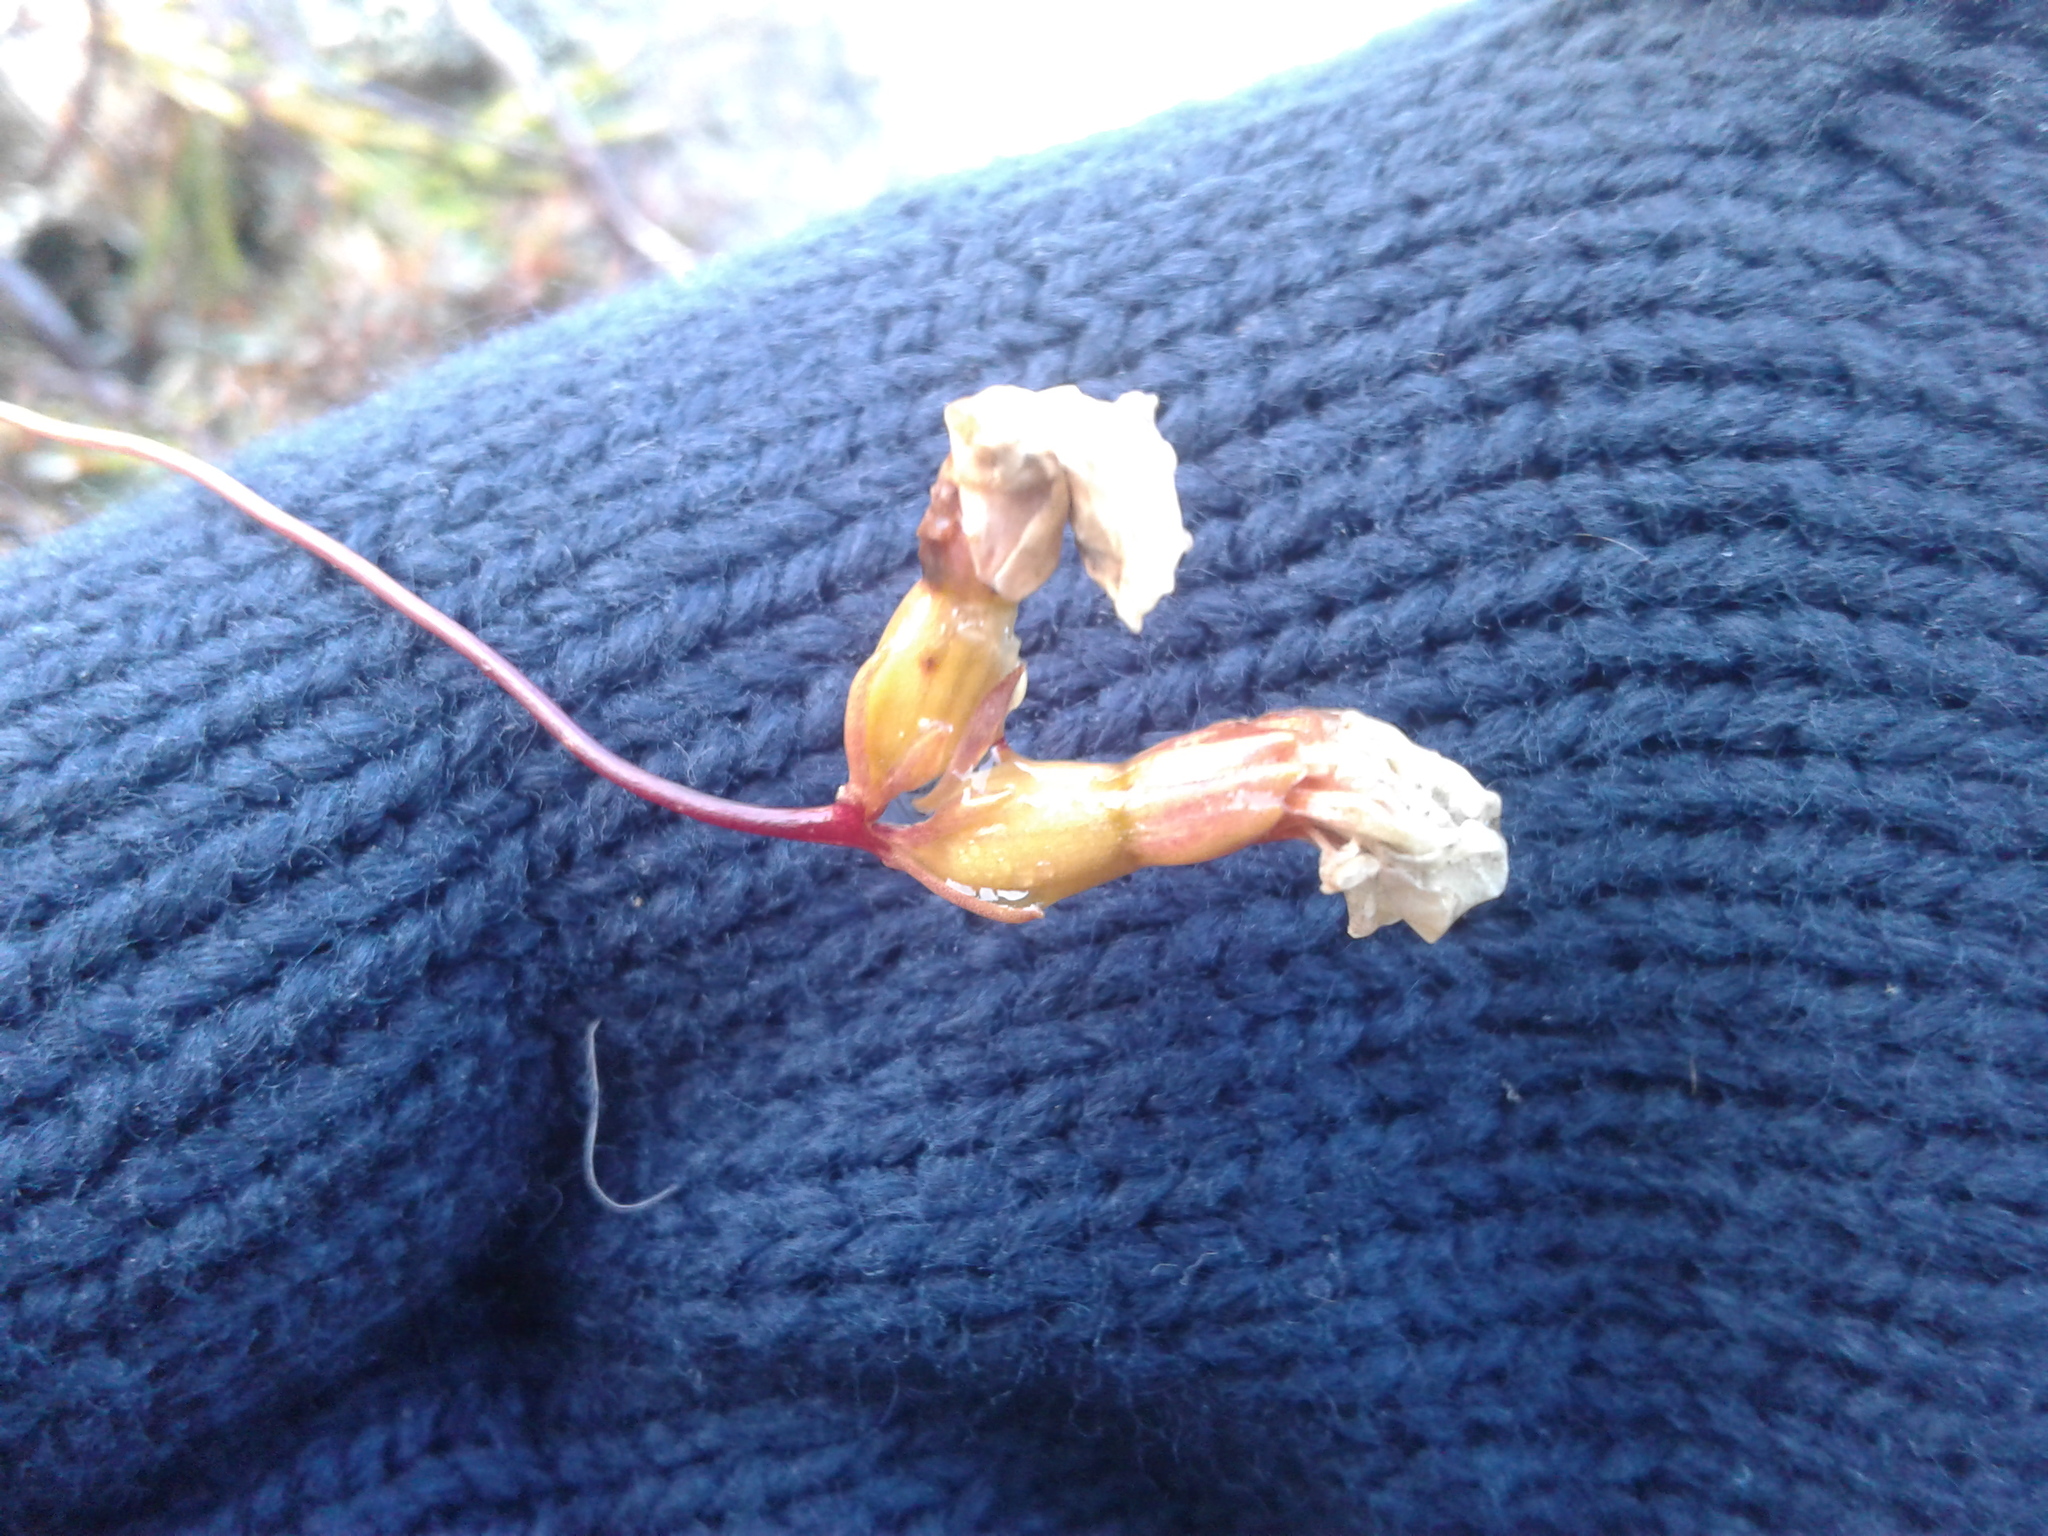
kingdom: Plantae
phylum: Tracheophyta
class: Magnoliopsida
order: Asterales
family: Stylidiaceae
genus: Forstera
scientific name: Forstera mackayi
